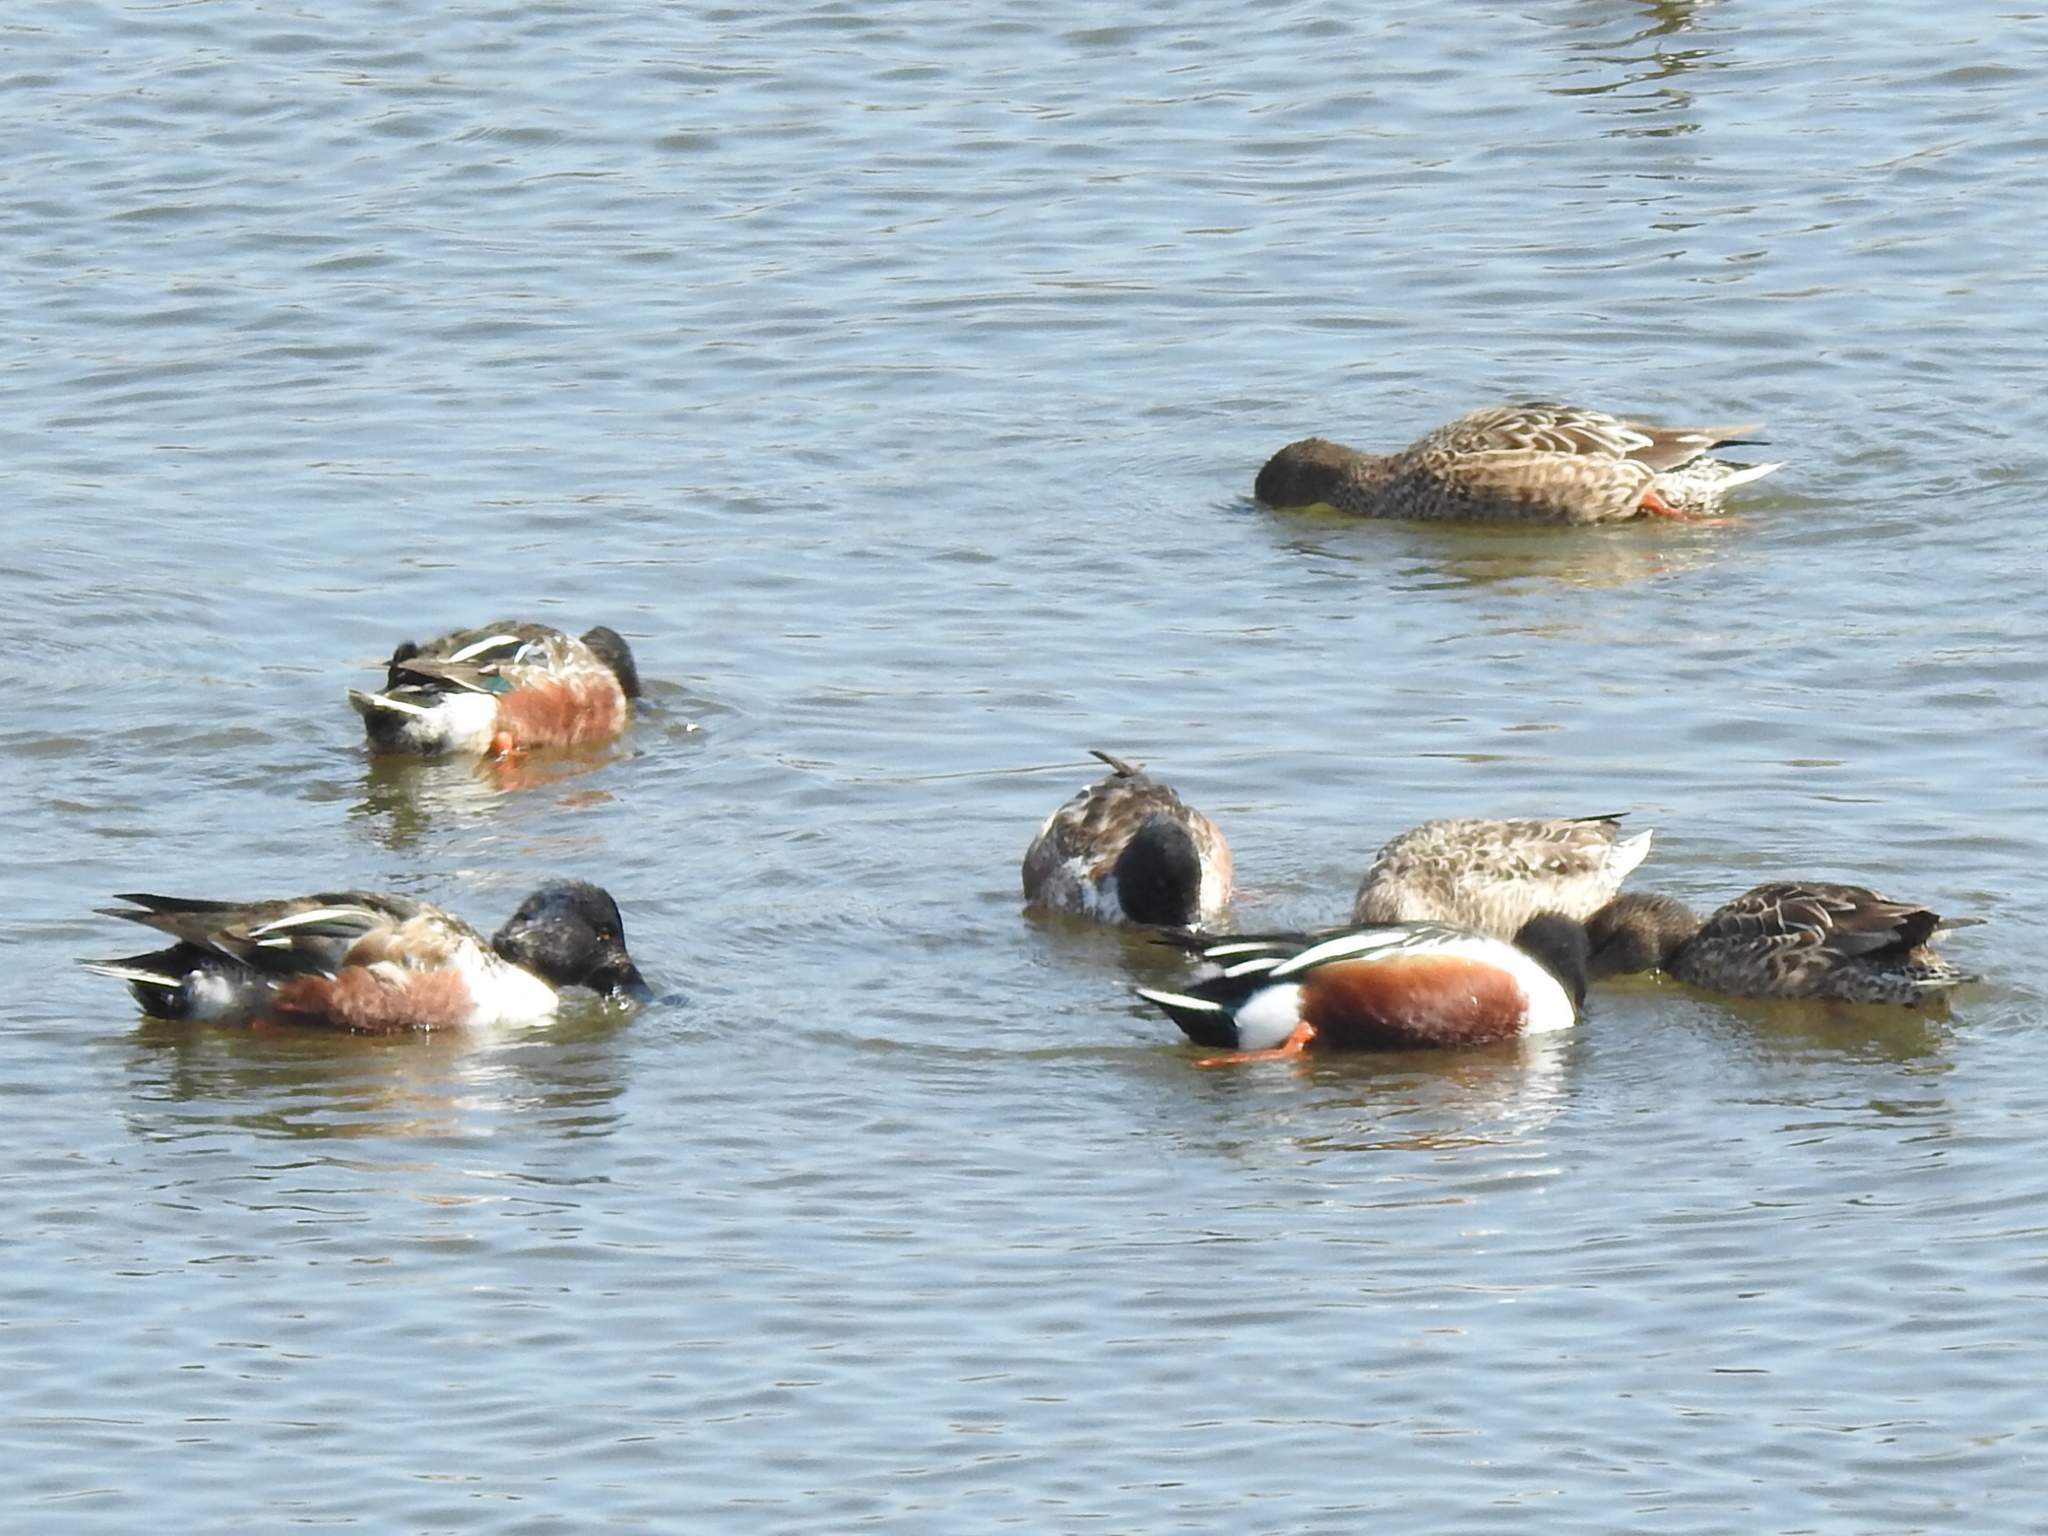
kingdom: Animalia
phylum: Chordata
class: Aves
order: Anseriformes
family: Anatidae
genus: Spatula
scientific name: Spatula clypeata
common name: Northern shoveler
